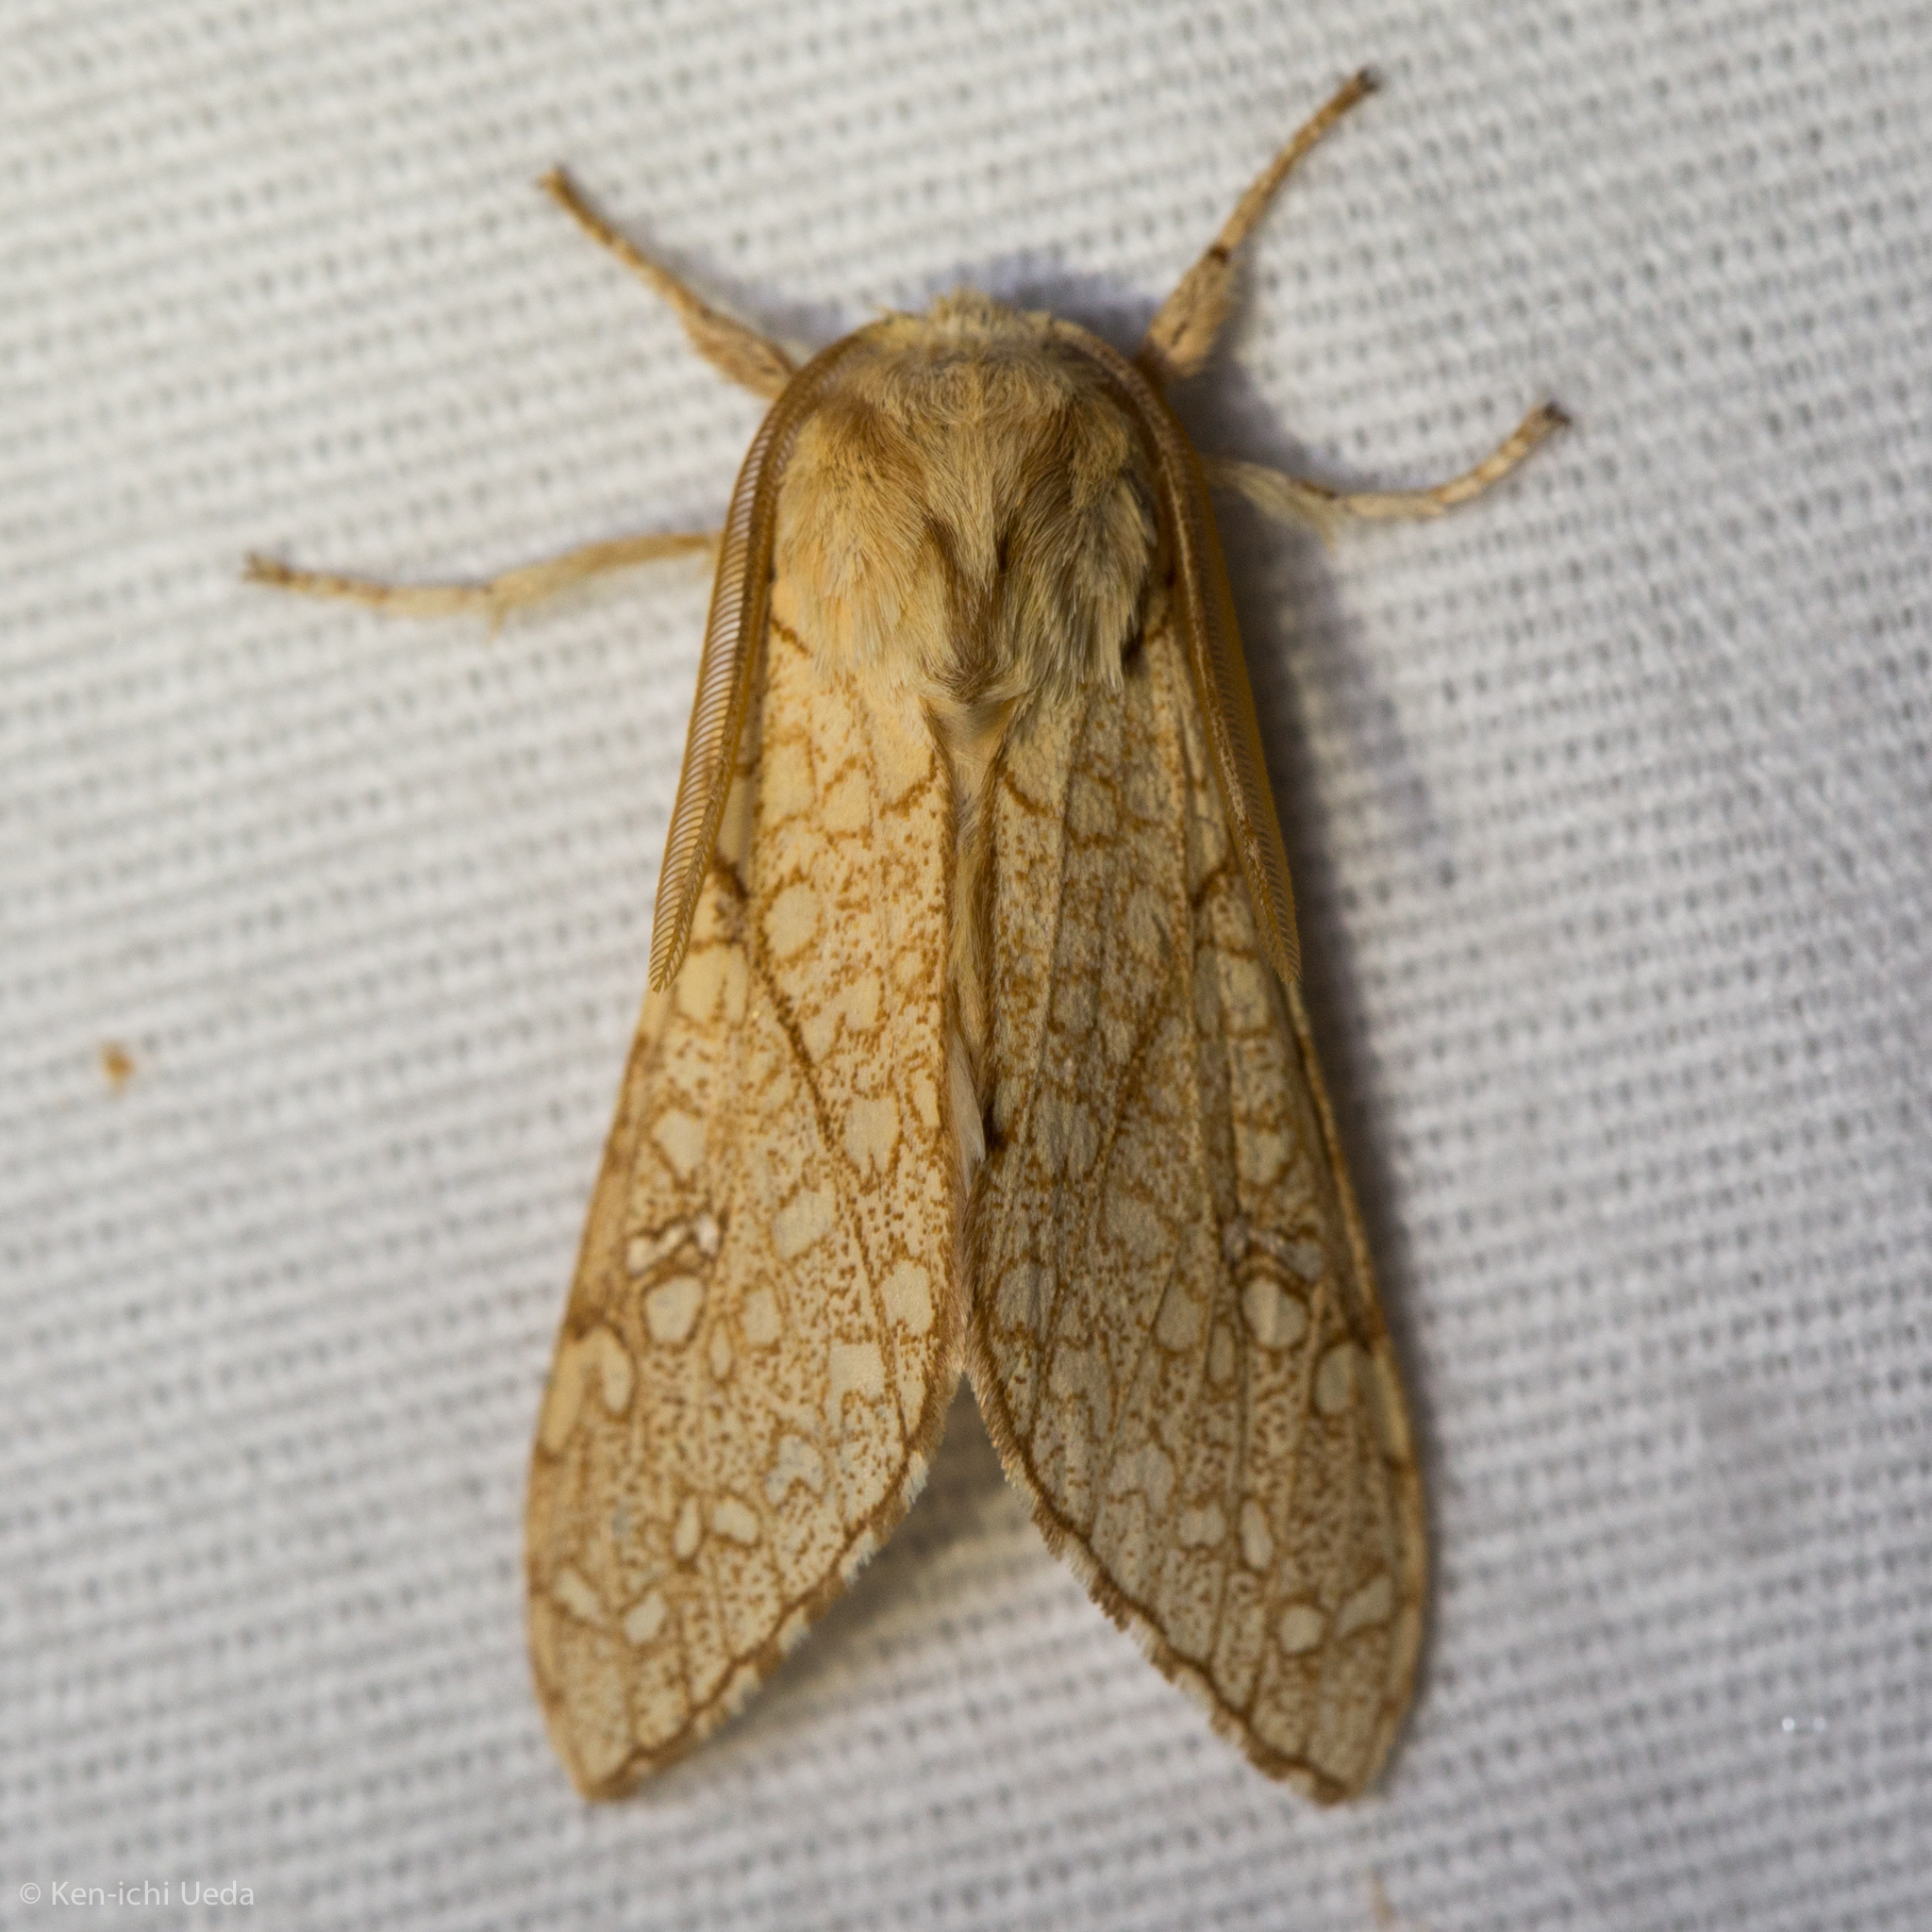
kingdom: Animalia
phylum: Arthropoda
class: Insecta
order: Lepidoptera
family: Erebidae
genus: Lophocampa
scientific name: Lophocampa mixta
